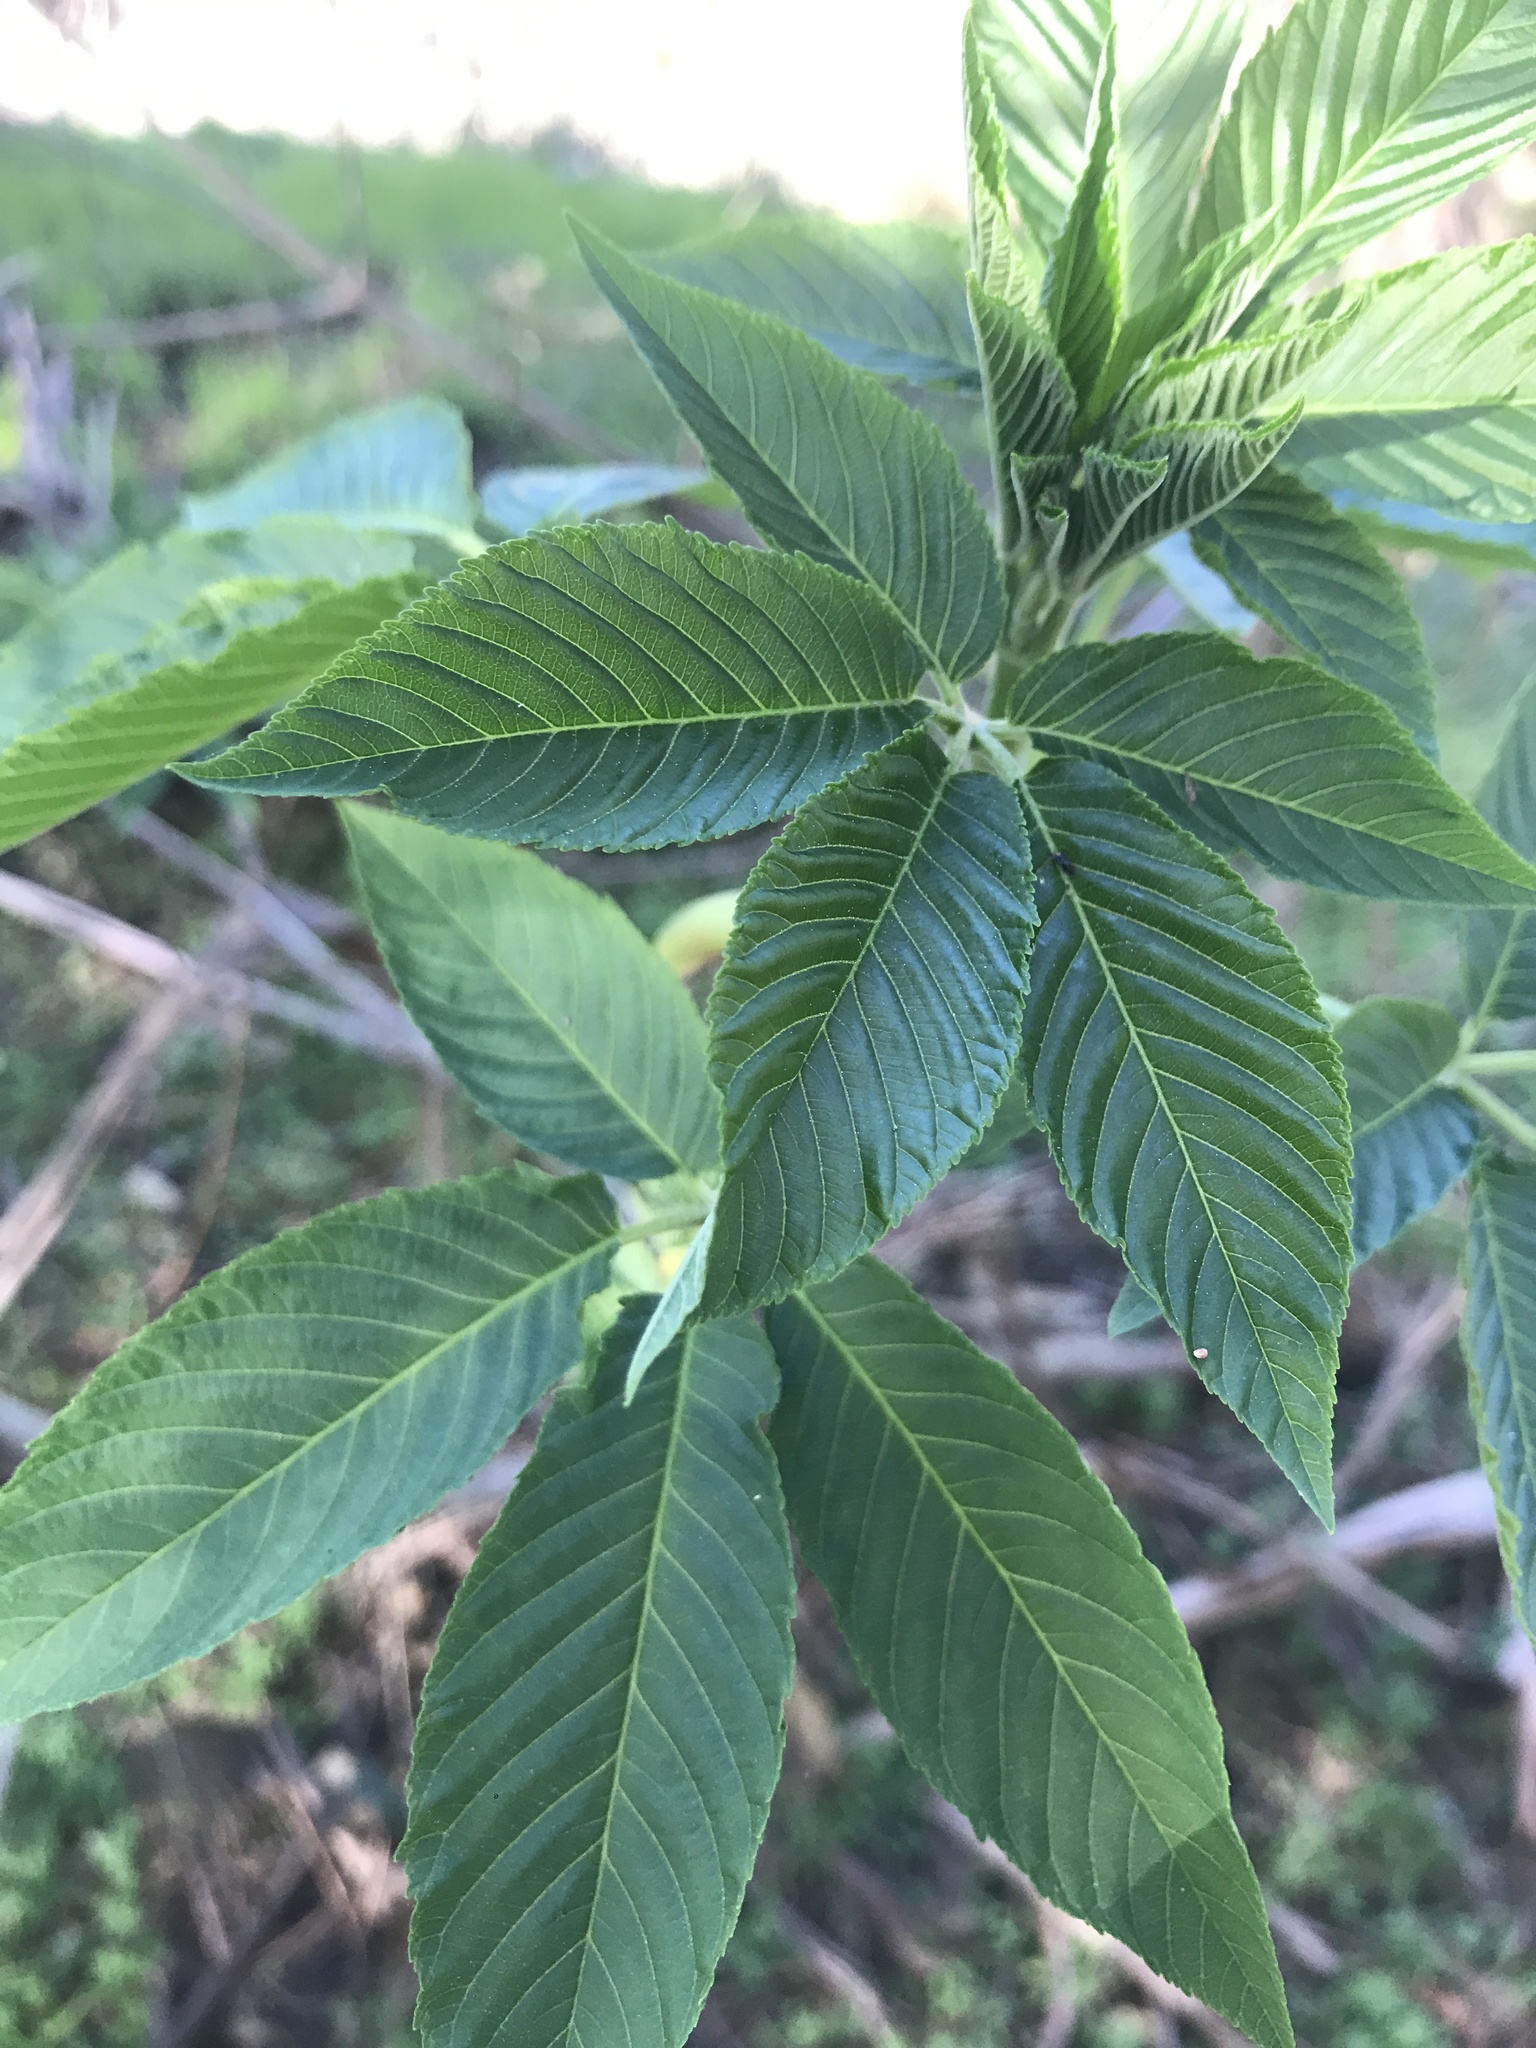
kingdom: Plantae
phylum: Tracheophyta
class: Magnoliopsida
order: Sapindales
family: Sapindaceae
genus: Aesculus
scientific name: Aesculus californica
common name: California buckeye
